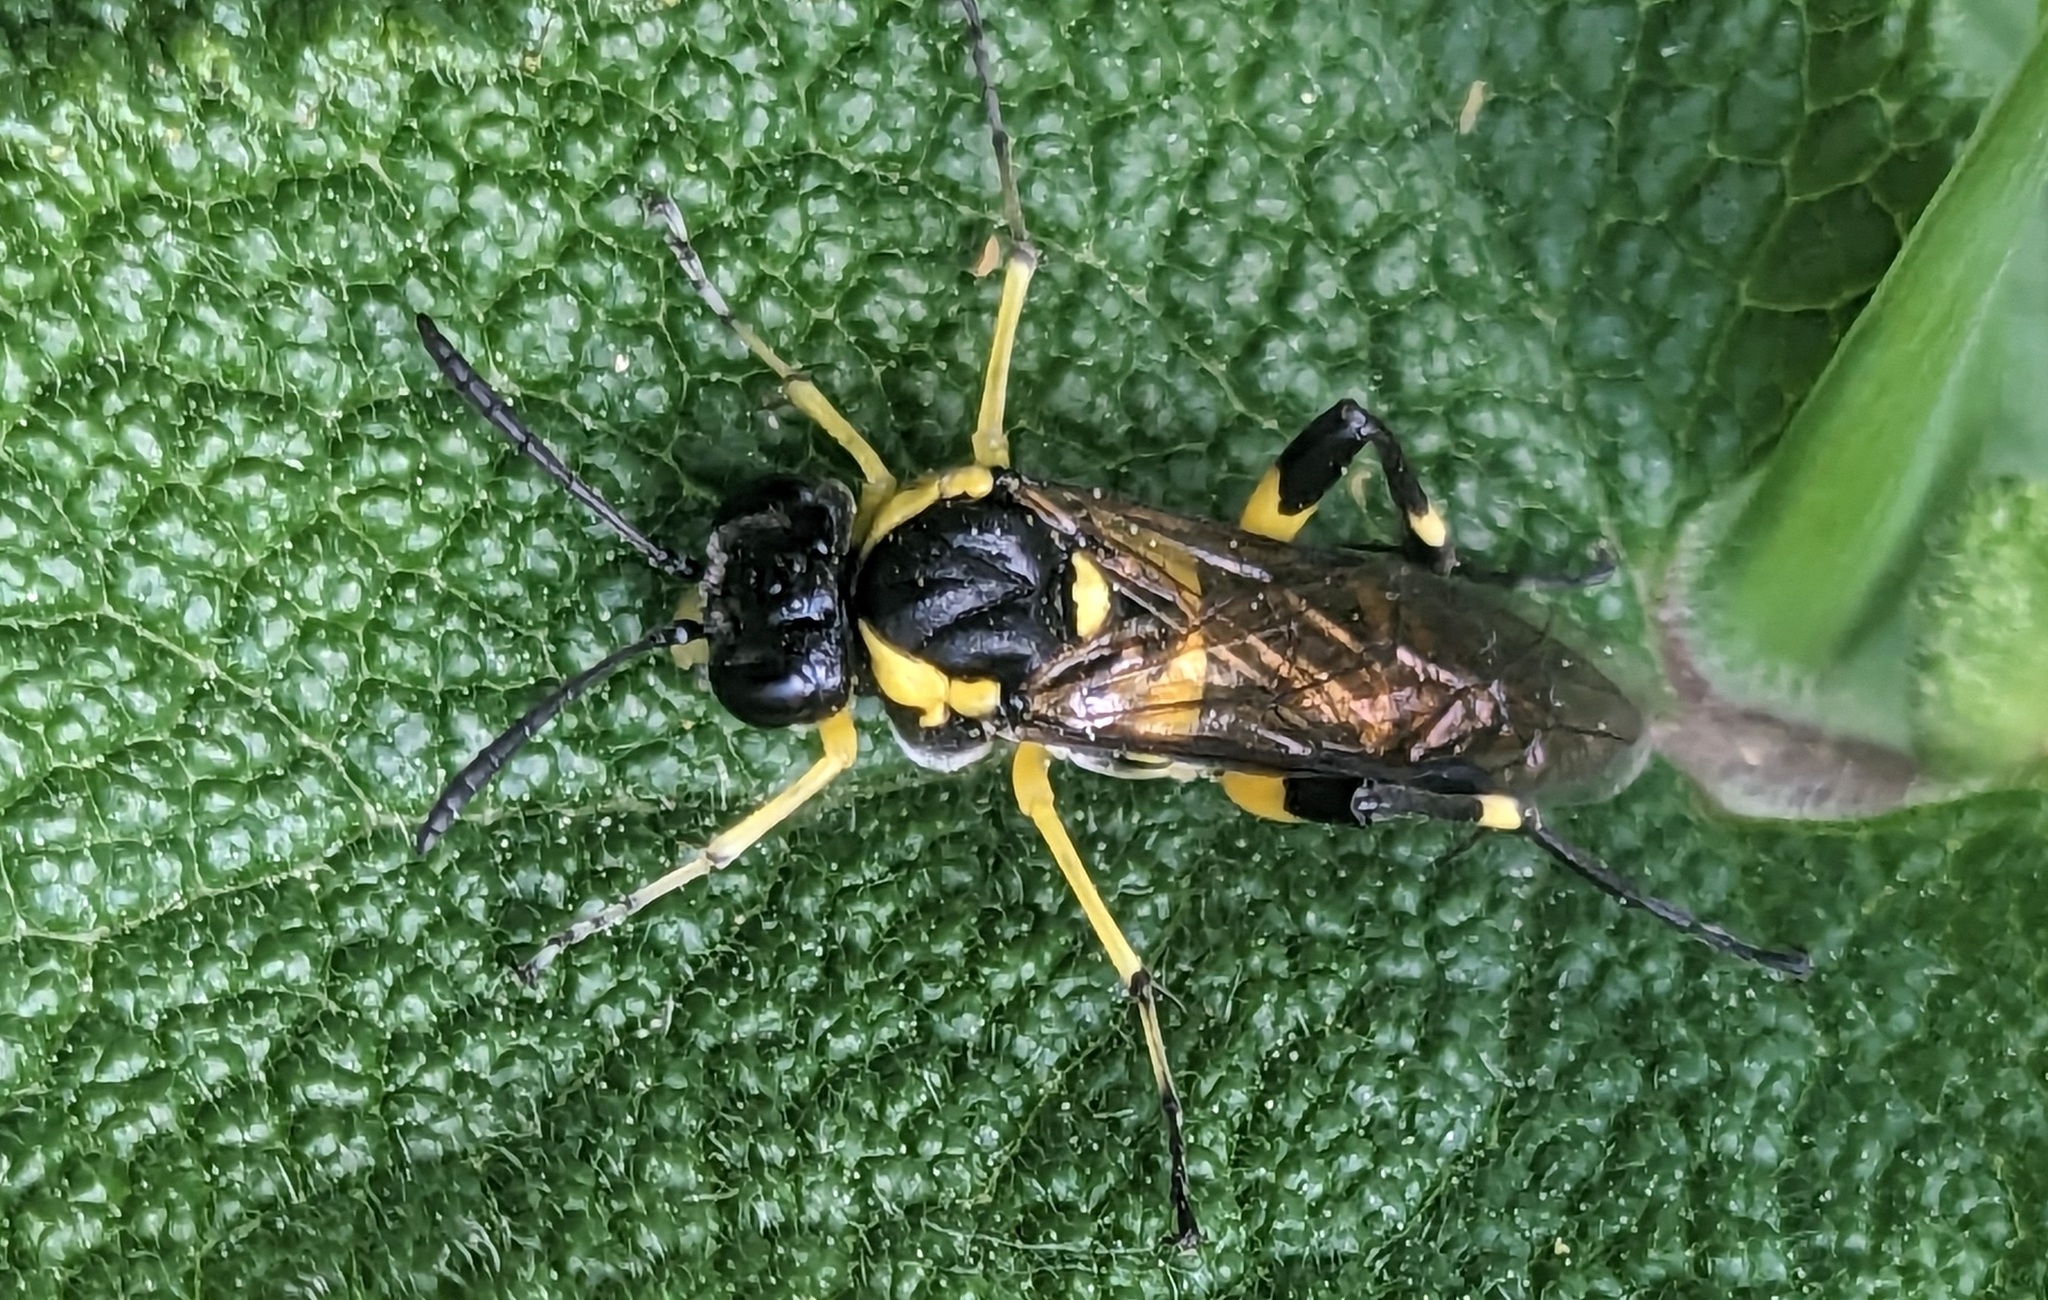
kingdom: Animalia
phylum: Arthropoda
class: Insecta
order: Hymenoptera
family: Tenthredinidae
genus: Macrophya
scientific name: Macrophya montana
